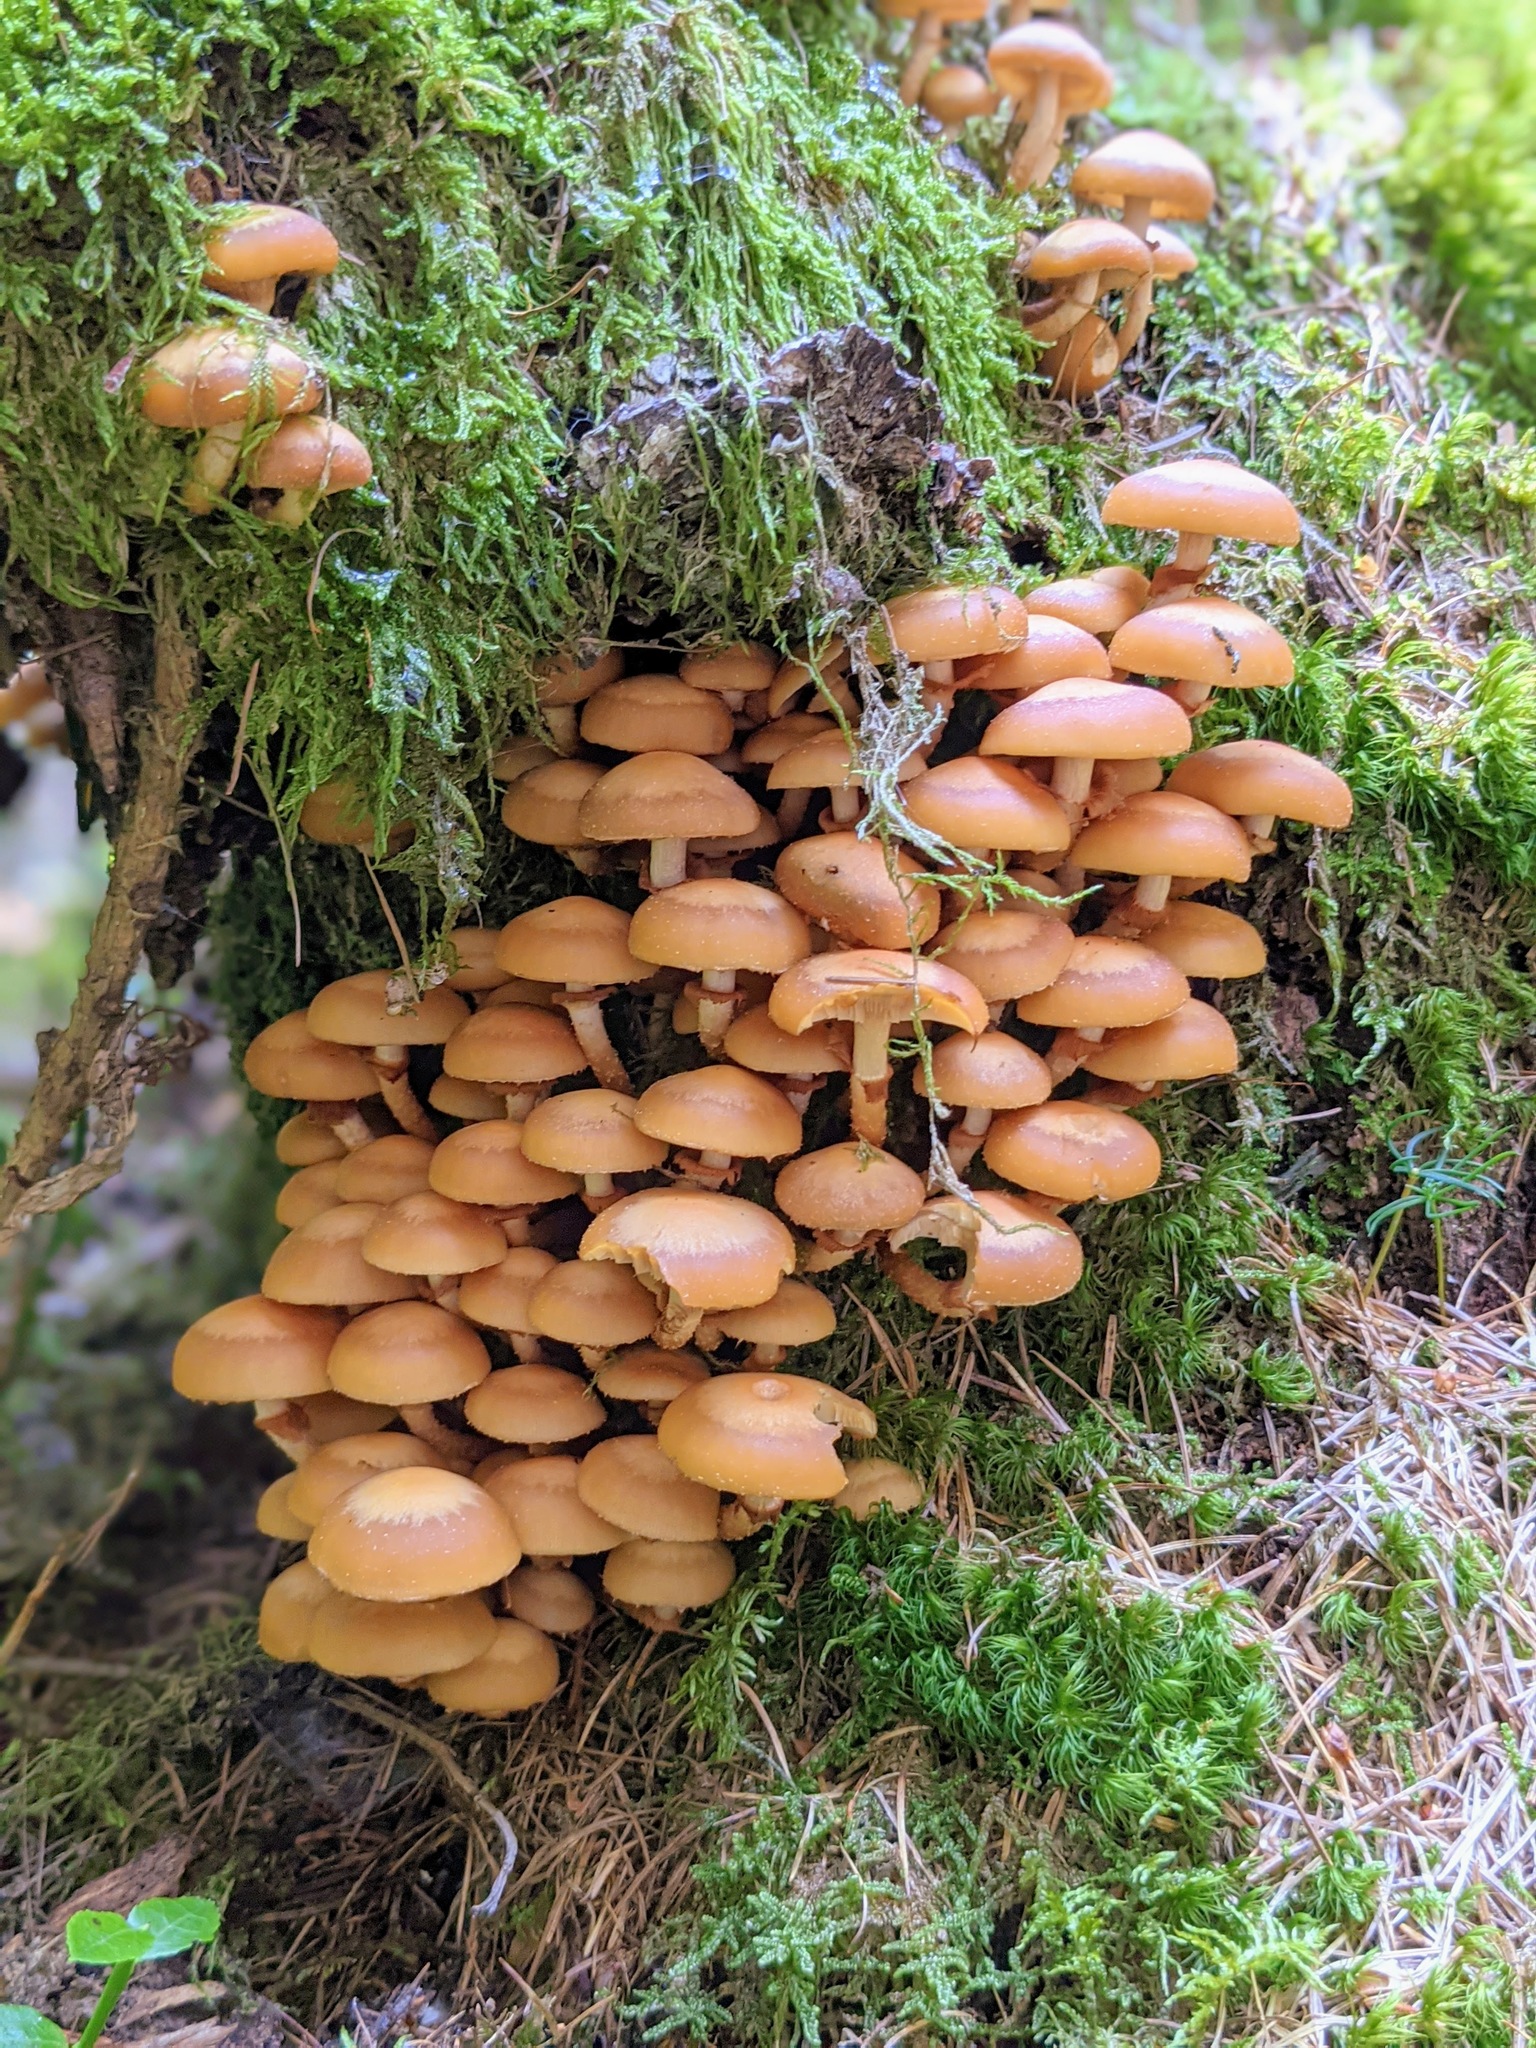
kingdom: Fungi
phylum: Basidiomycota
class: Agaricomycetes
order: Agaricales
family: Strophariaceae
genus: Kuehneromyces
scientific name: Kuehneromyces mutabilis
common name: Sheathed woodtuft
